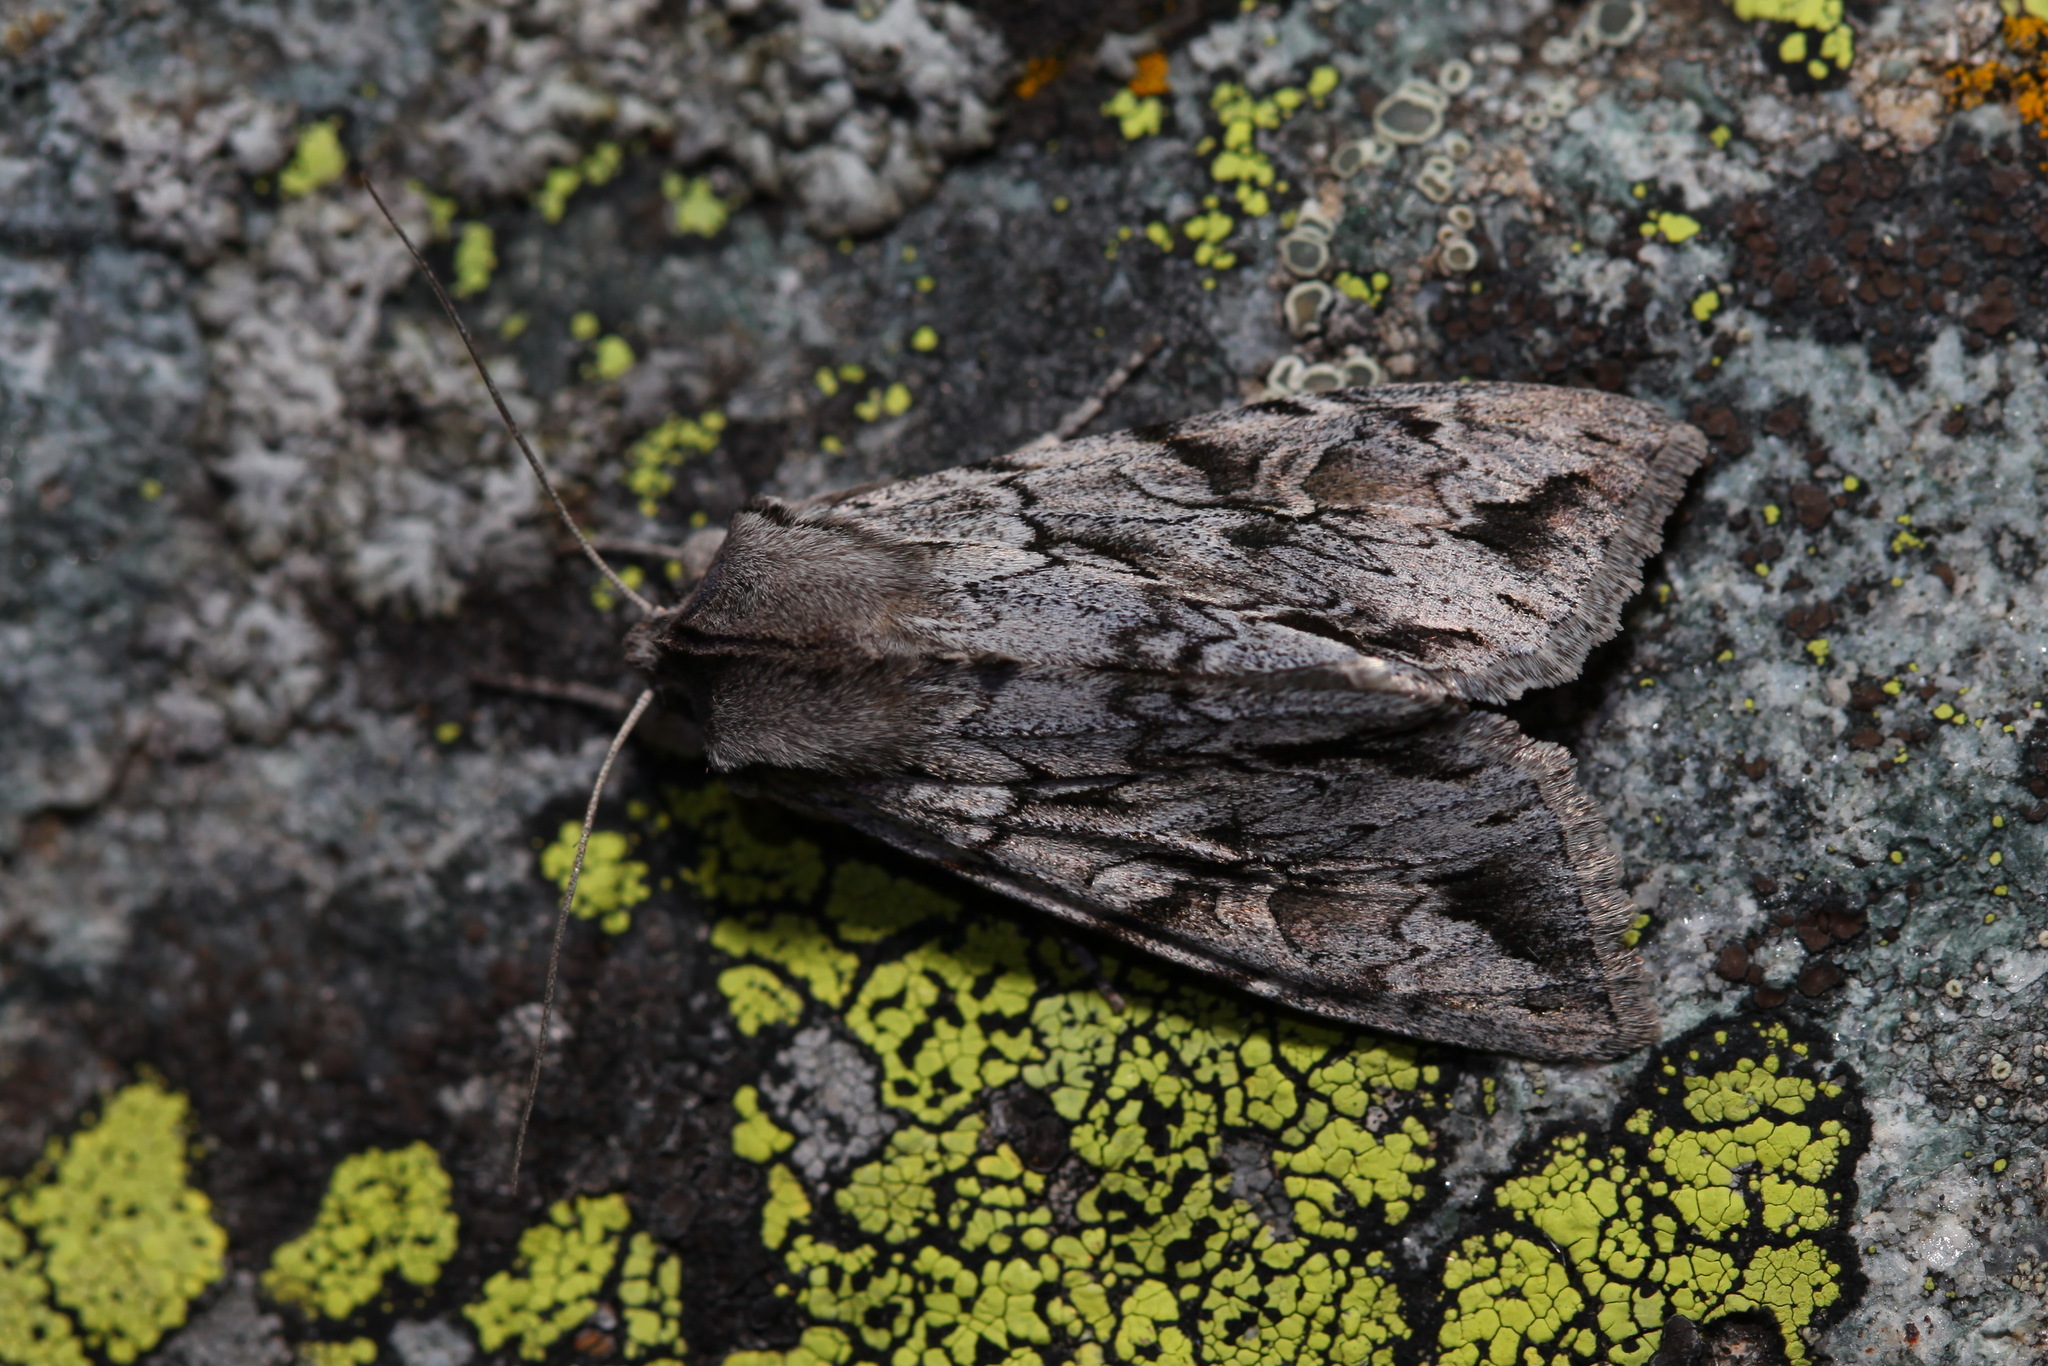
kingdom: Animalia
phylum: Arthropoda
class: Insecta
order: Lepidoptera
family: Noctuidae
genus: Auchmis
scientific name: Auchmis mongolica
